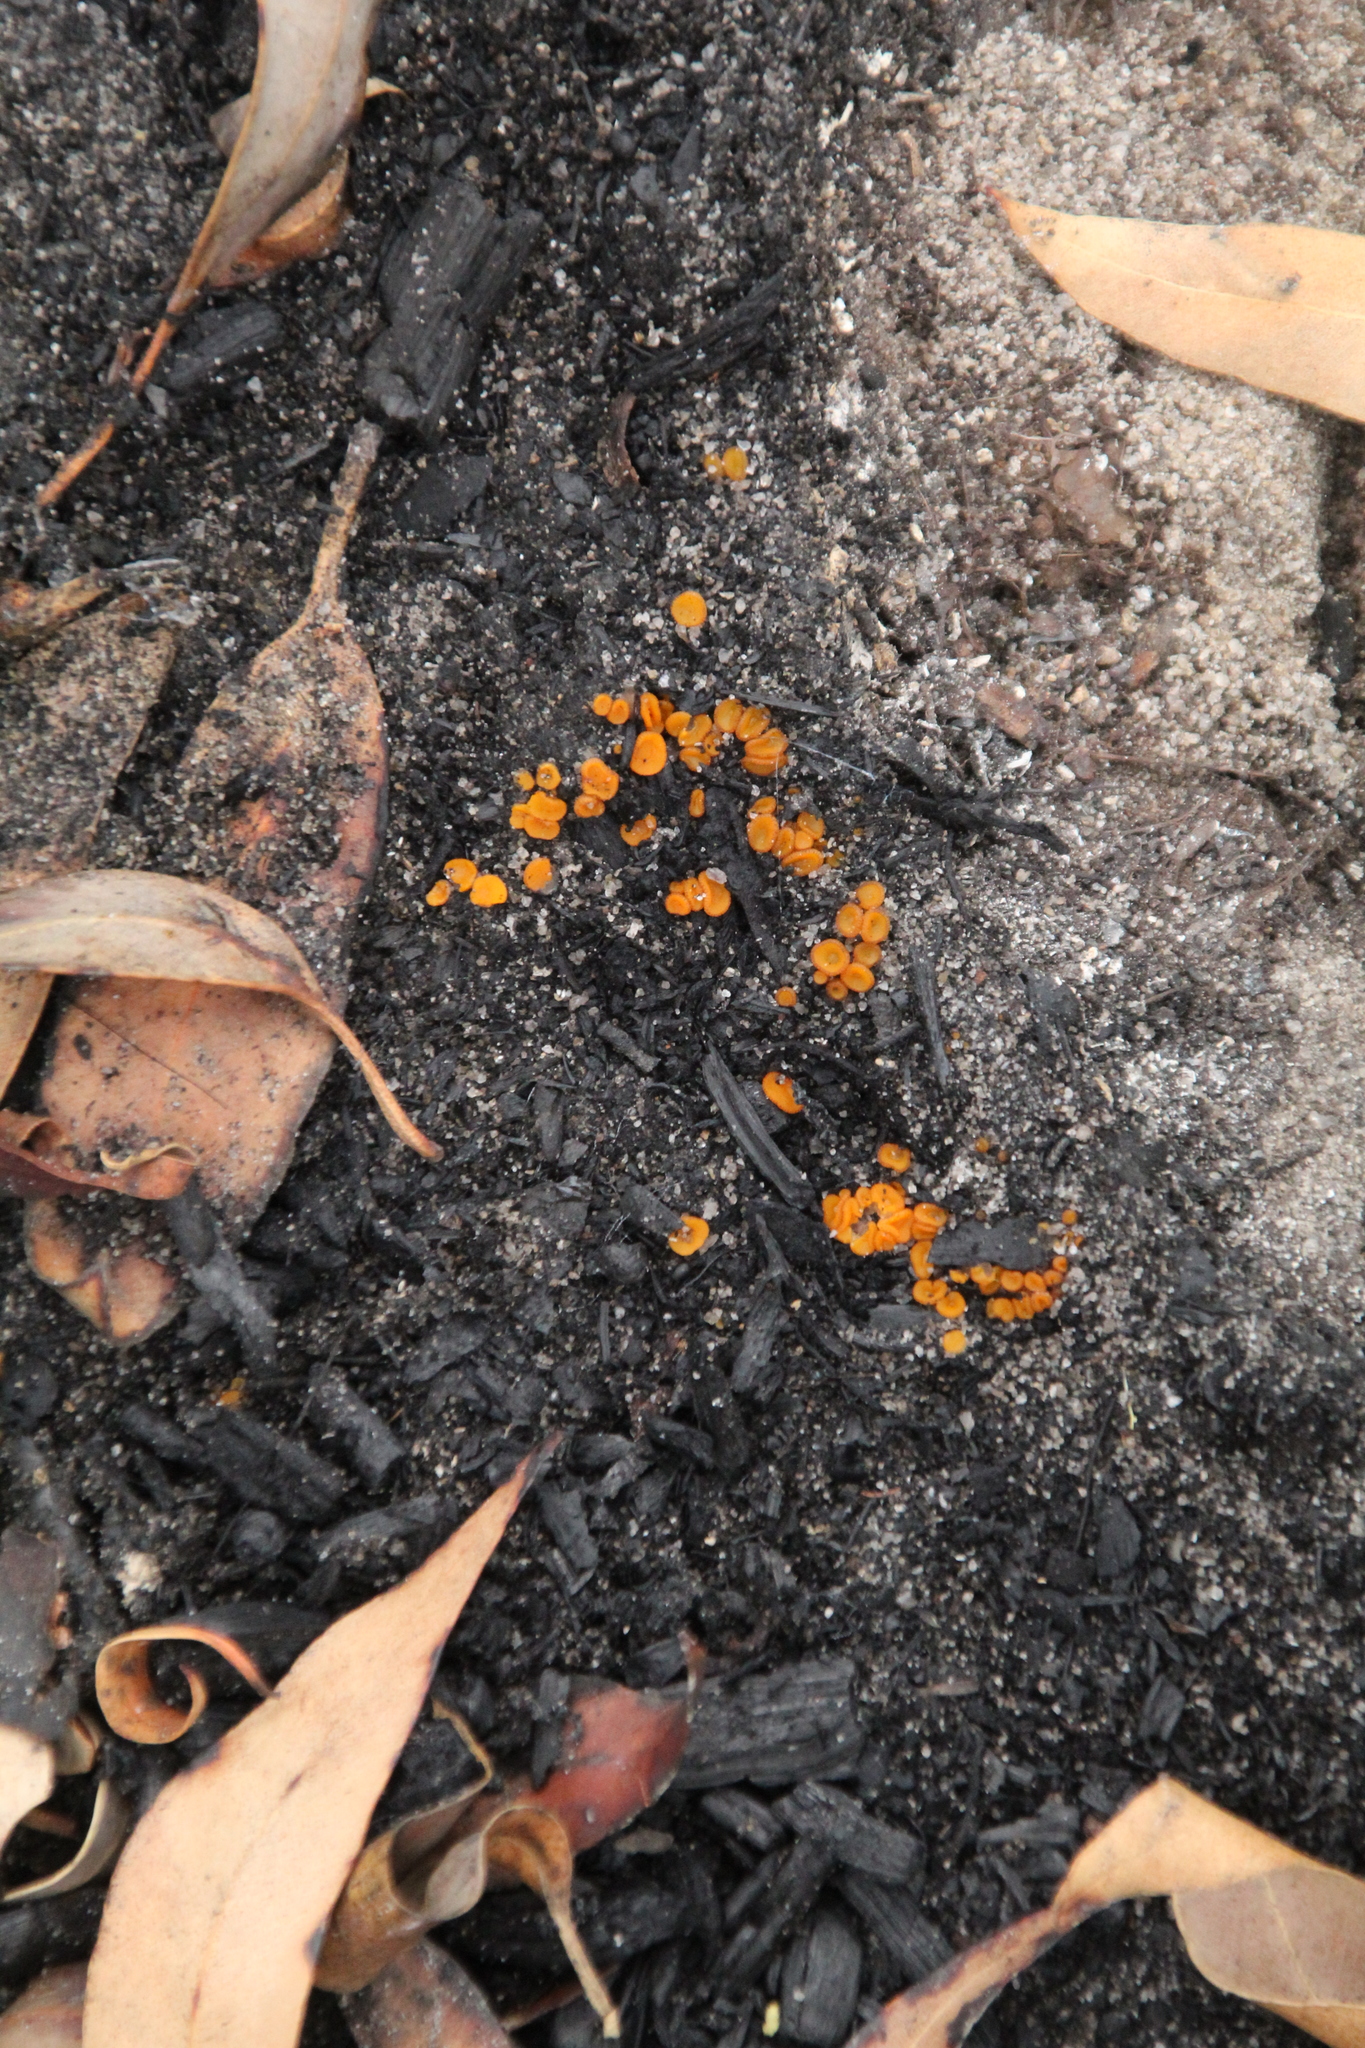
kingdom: Fungi
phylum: Ascomycota
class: Pezizomycetes
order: Pezizales
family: Pyronemataceae
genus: Anthracobia
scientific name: Anthracobia muelleri
